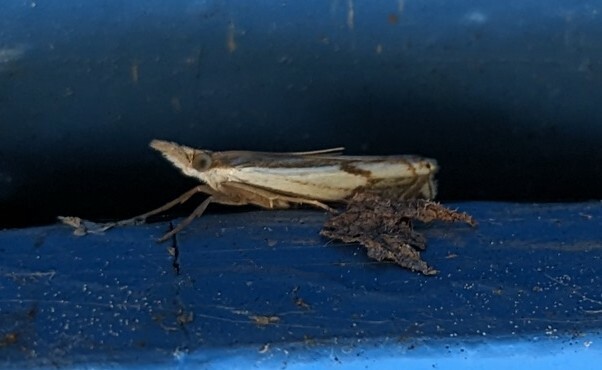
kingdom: Animalia
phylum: Arthropoda
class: Insecta
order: Lepidoptera
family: Crambidae
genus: Crambus
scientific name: Crambus agitatellus
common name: Double-banded grass-veneer
